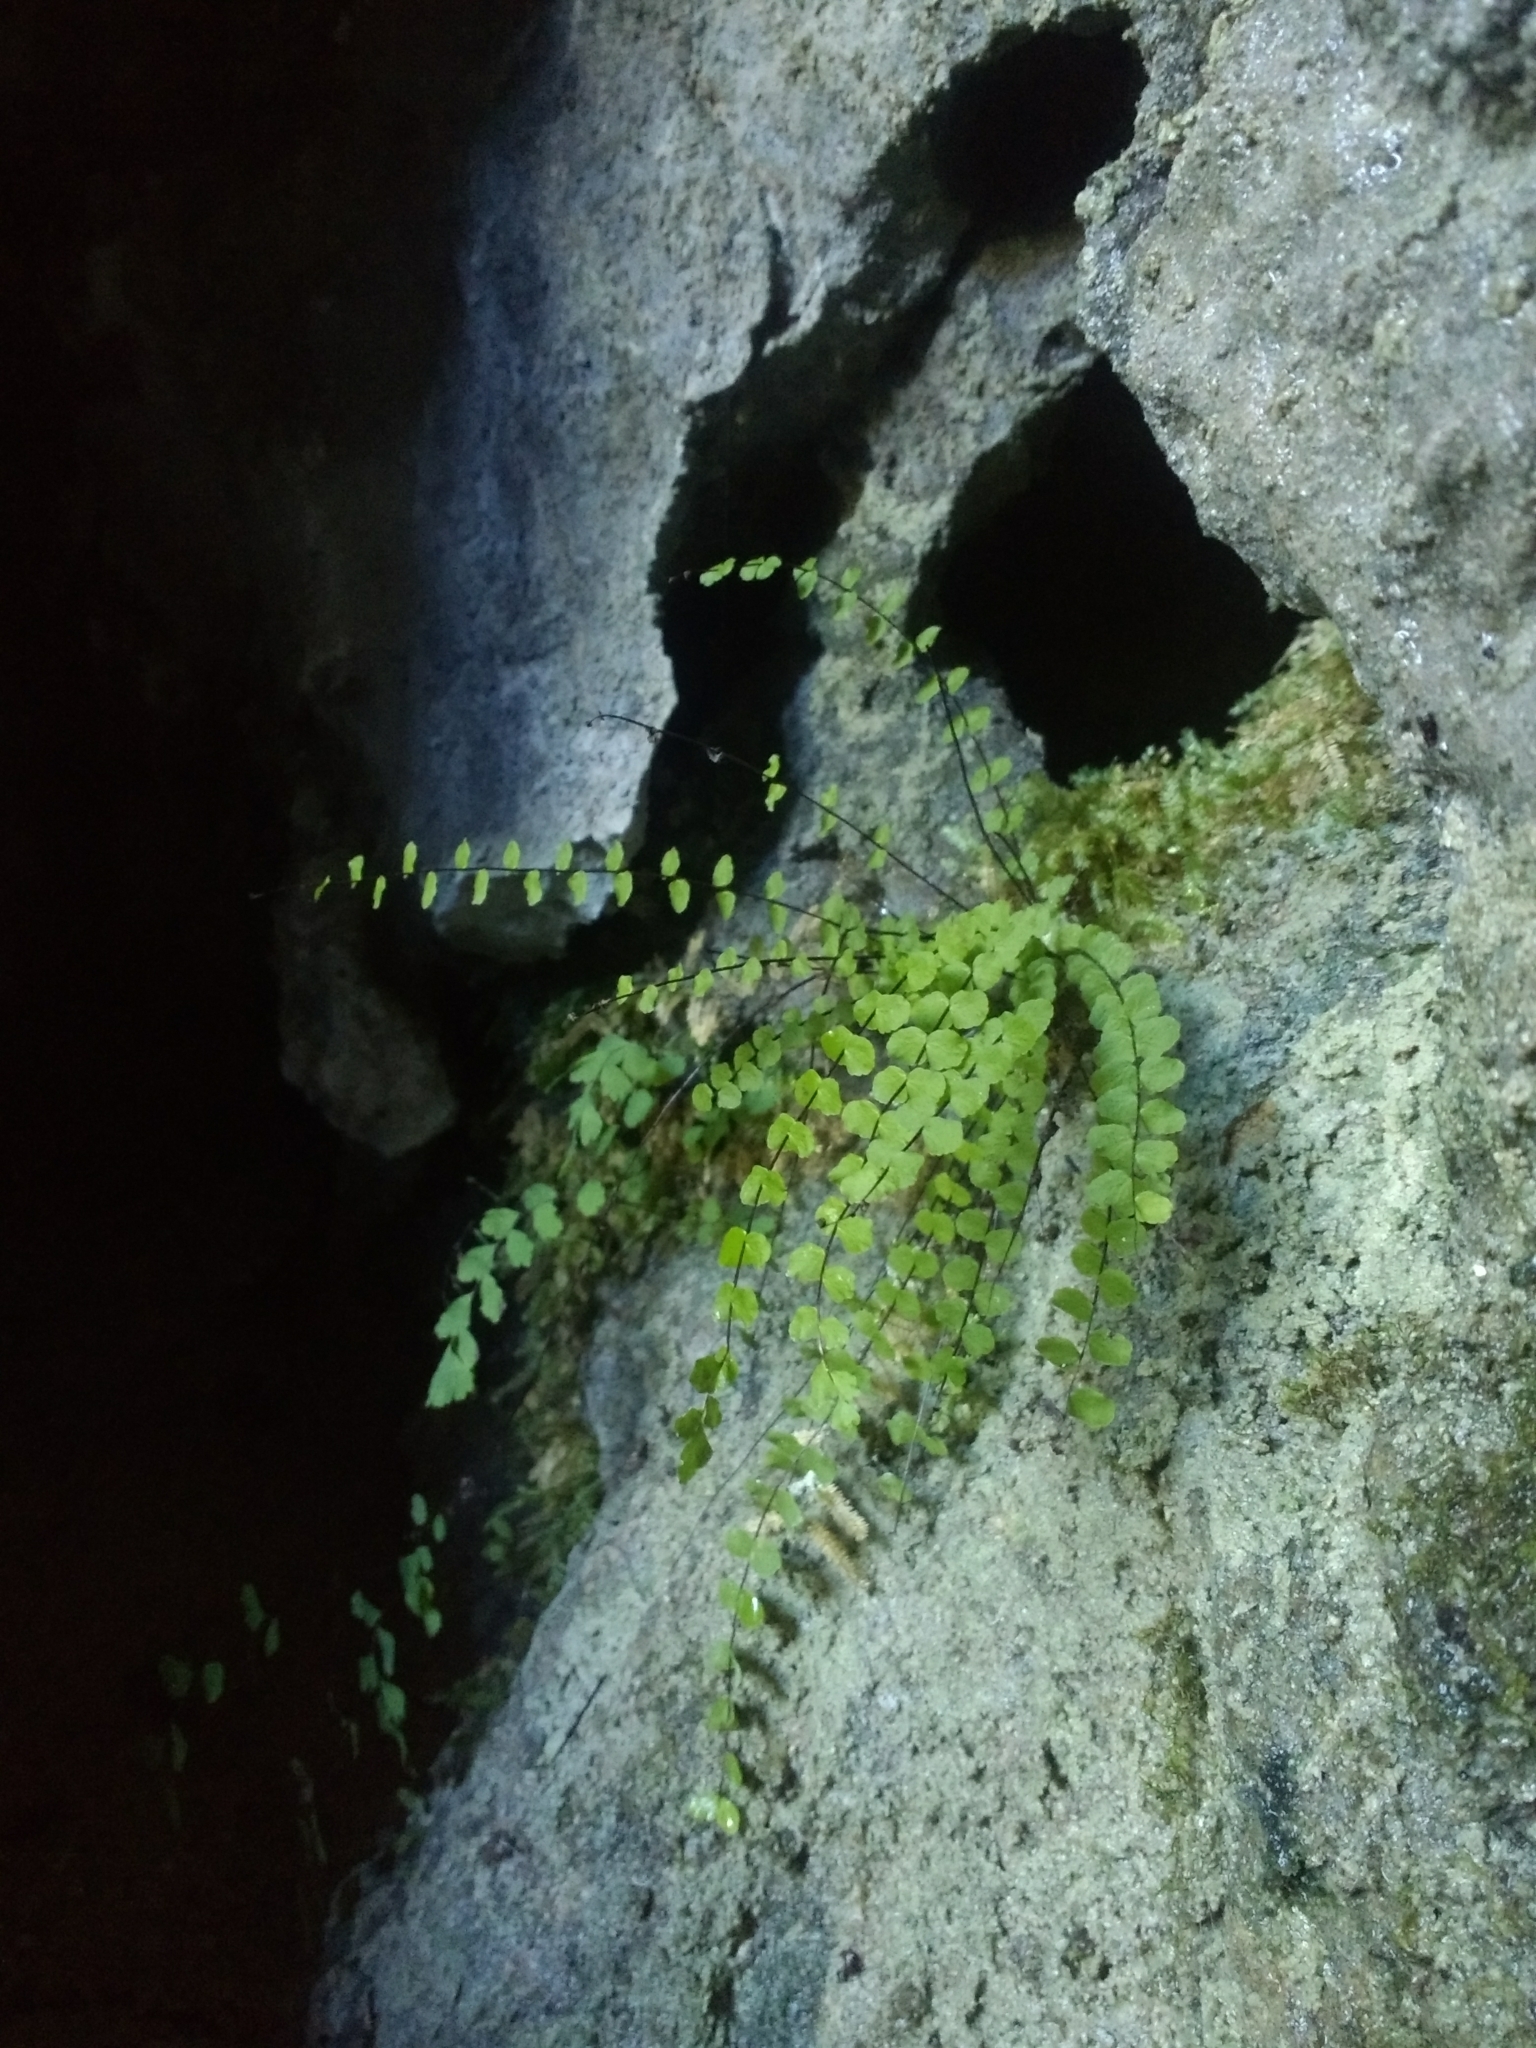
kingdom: Plantae
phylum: Tracheophyta
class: Polypodiopsida
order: Polypodiales
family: Aspleniaceae
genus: Asplenium
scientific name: Asplenium trichomanes
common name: Maidenhair spleenwort
